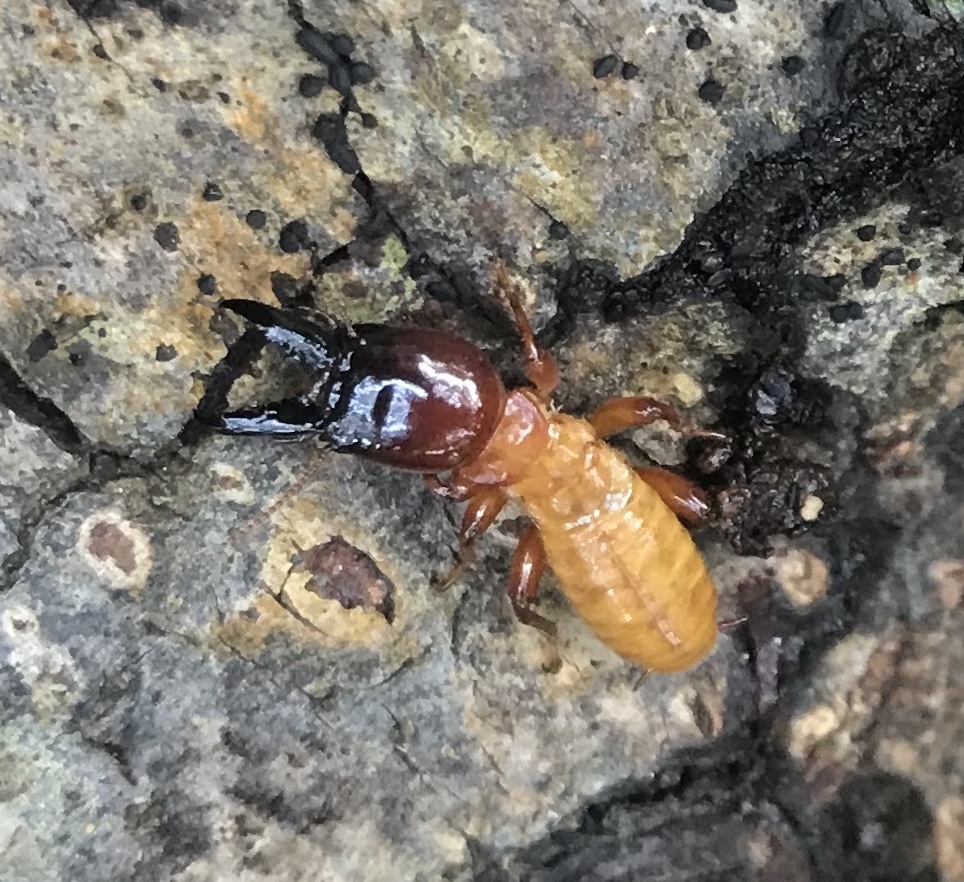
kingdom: Animalia
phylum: Arthropoda
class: Insecta
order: Blattodea
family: Archotermopsidae
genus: Zootermopsis
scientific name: Zootermopsis angusticollis
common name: Rottenwood termite
